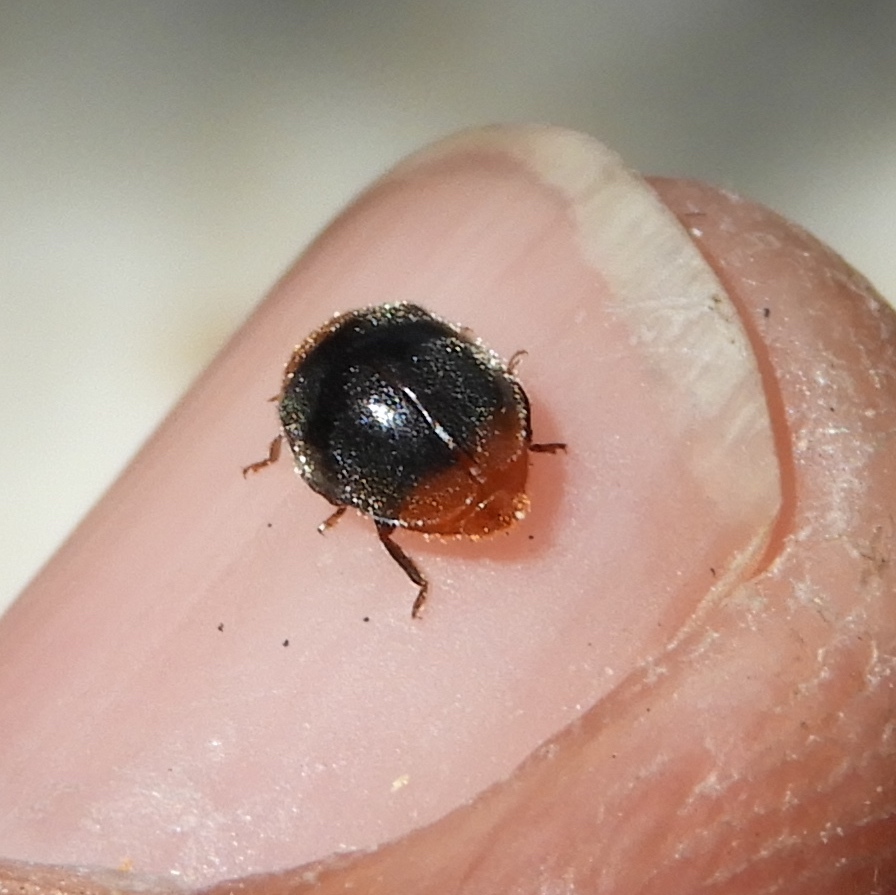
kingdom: Animalia
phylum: Arthropoda
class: Insecta
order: Coleoptera
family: Coccinellidae
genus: Cryptolaemus
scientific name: Cryptolaemus montrouzieri
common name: Mealybug destroyer
